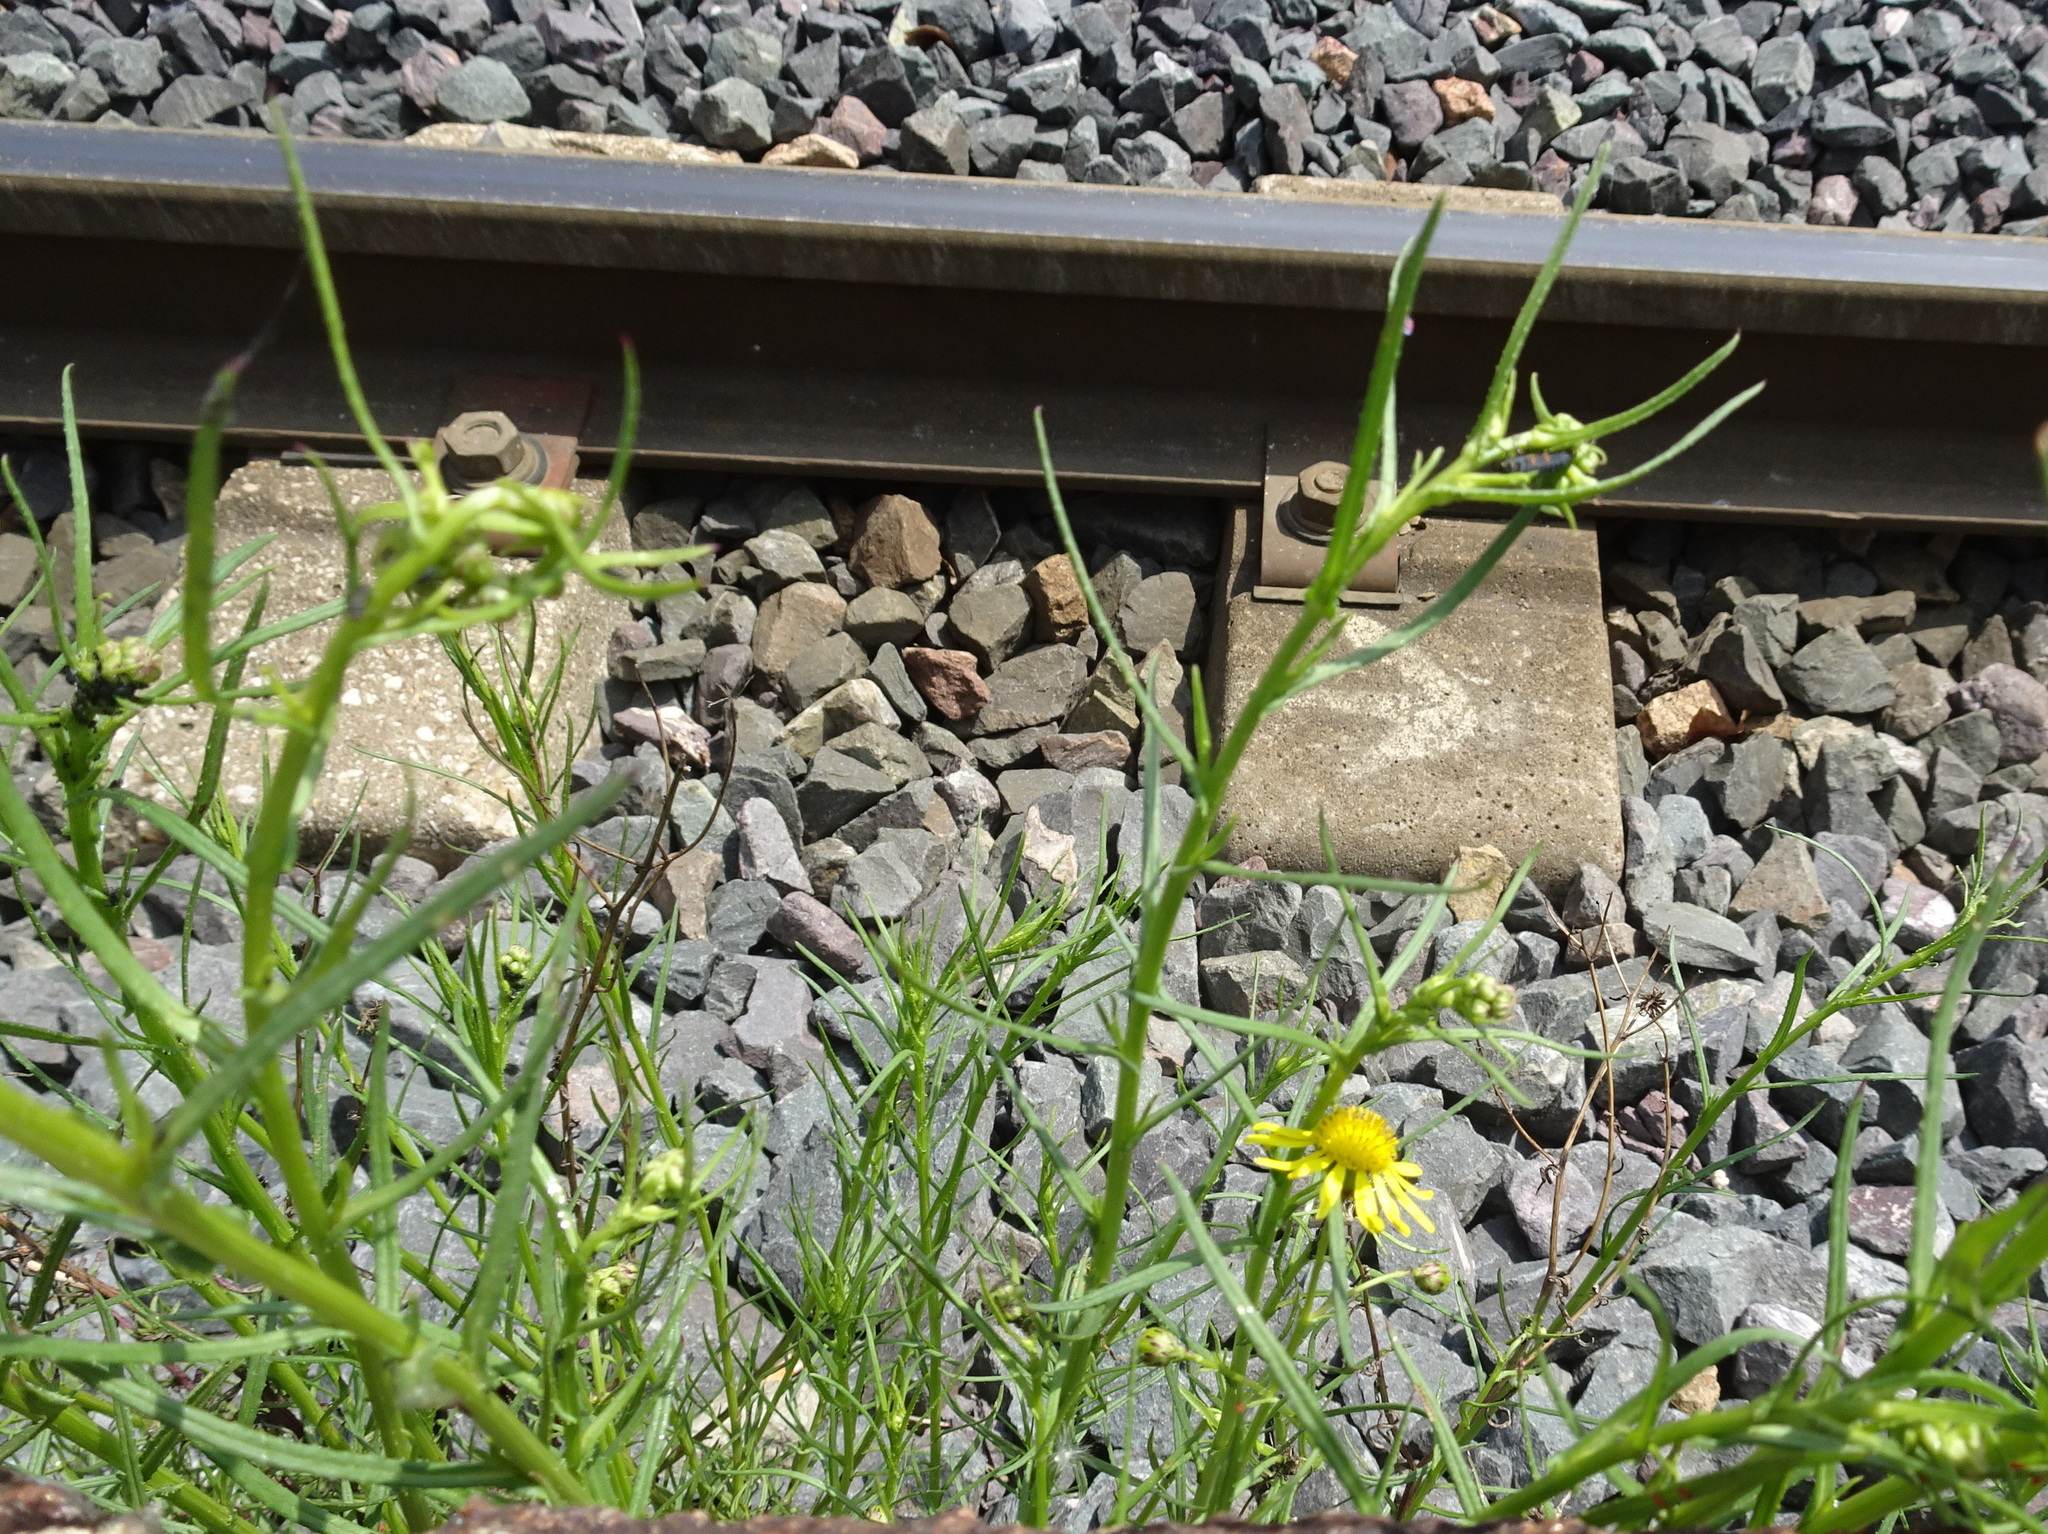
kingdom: Plantae
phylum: Tracheophyta
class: Magnoliopsida
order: Asterales
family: Asteraceae
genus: Senecio
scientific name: Senecio inaequidens
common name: Narrow-leaved ragwort
